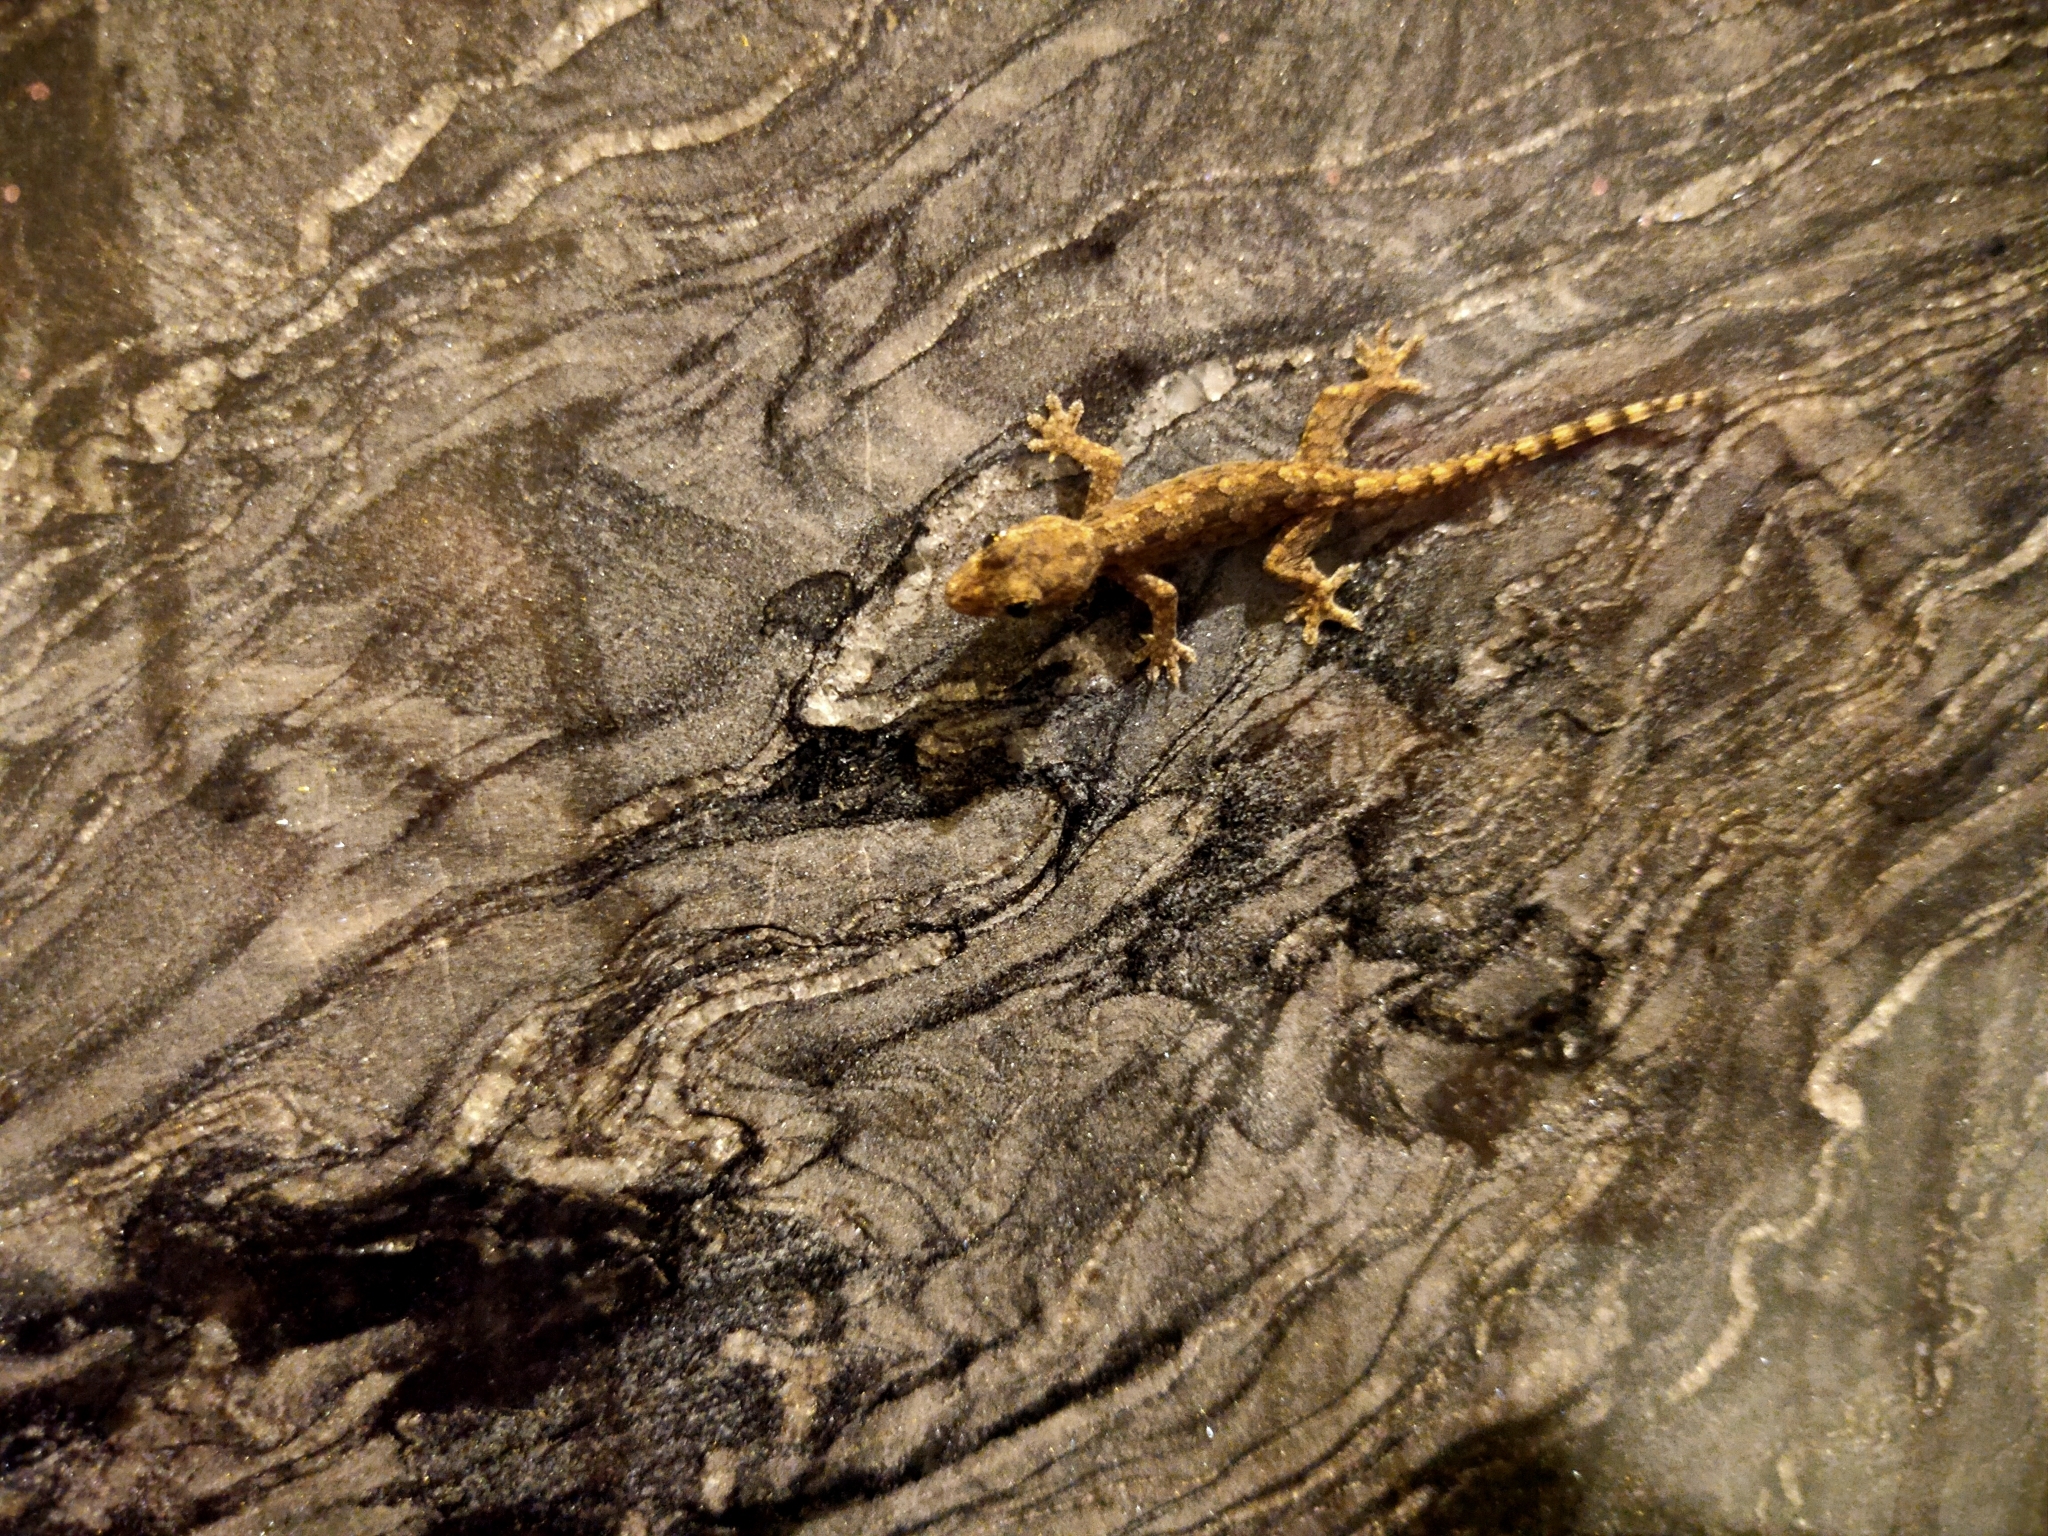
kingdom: Animalia
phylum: Chordata
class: Squamata
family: Gekkonidae
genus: Hemidactylus
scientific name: Hemidactylus platyurus
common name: Flat-tailed house gecko
